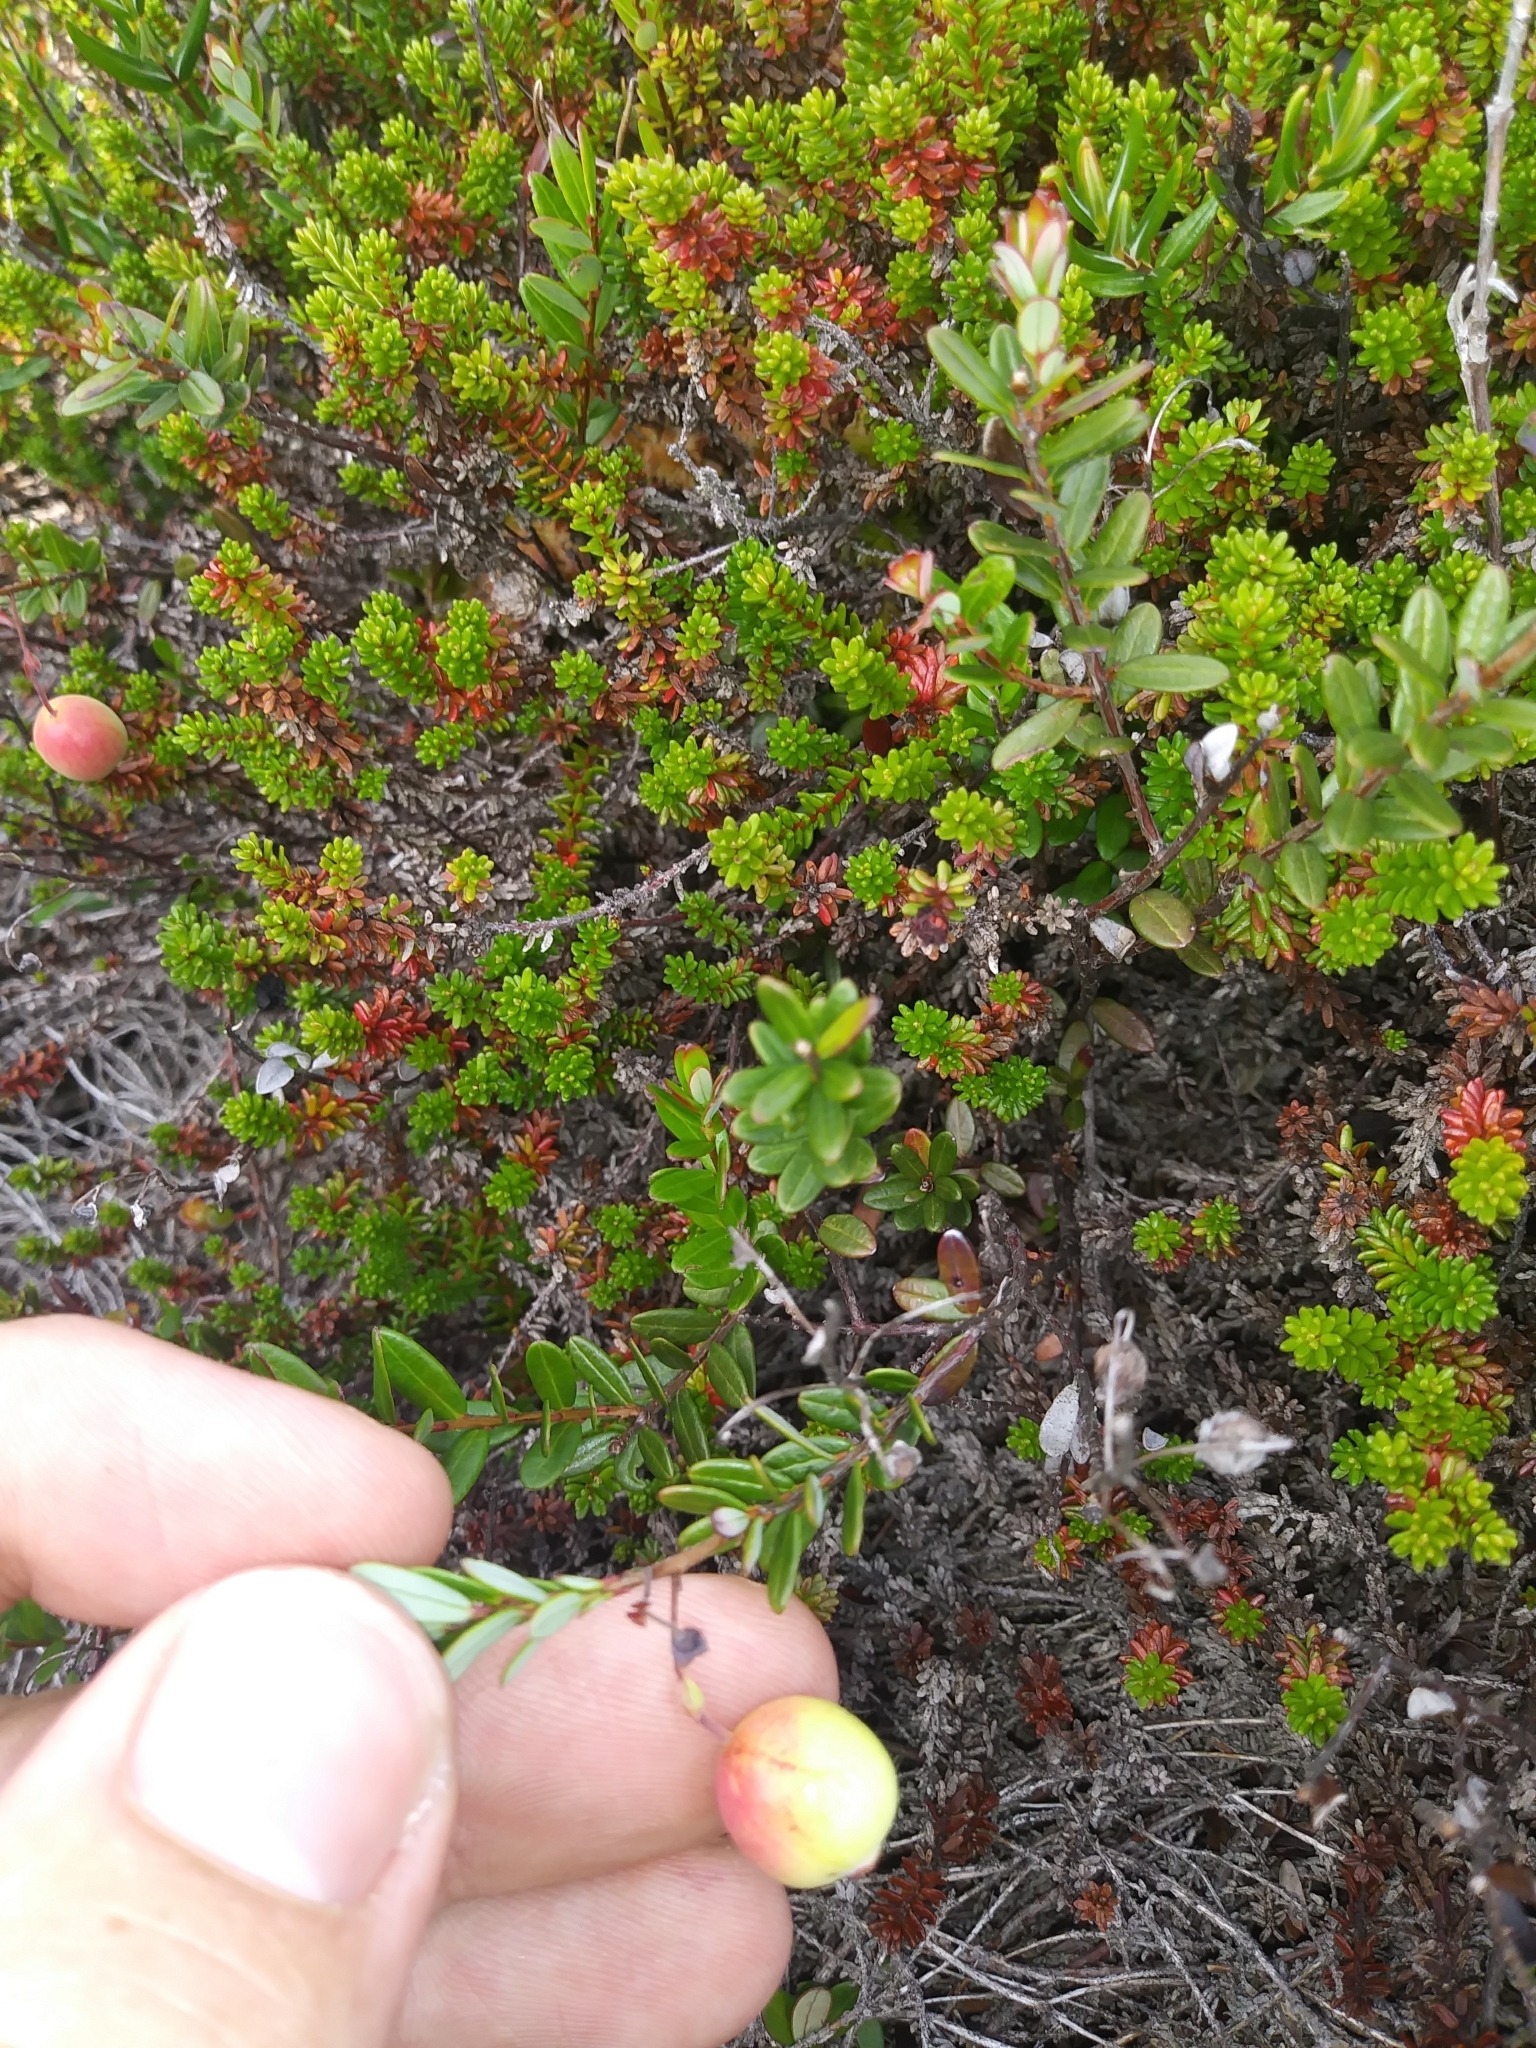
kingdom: Plantae
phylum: Tracheophyta
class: Magnoliopsida
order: Ericales
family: Ericaceae
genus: Vaccinium
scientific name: Vaccinium macrocarpon
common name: American cranberry
